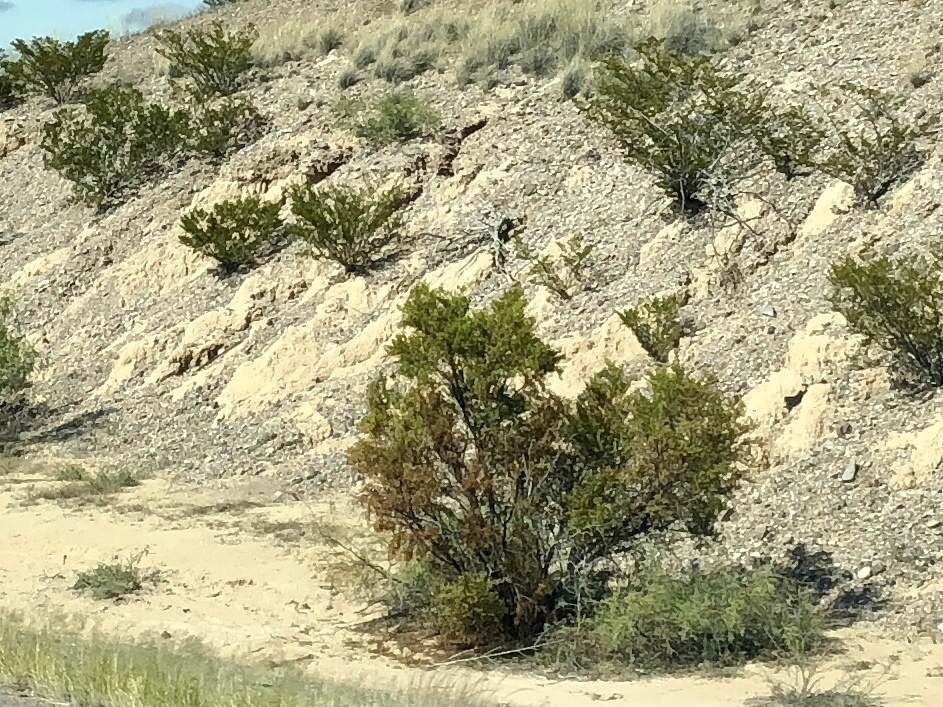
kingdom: Plantae
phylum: Tracheophyta
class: Magnoliopsida
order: Zygophyllales
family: Zygophyllaceae
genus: Larrea
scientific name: Larrea tridentata
